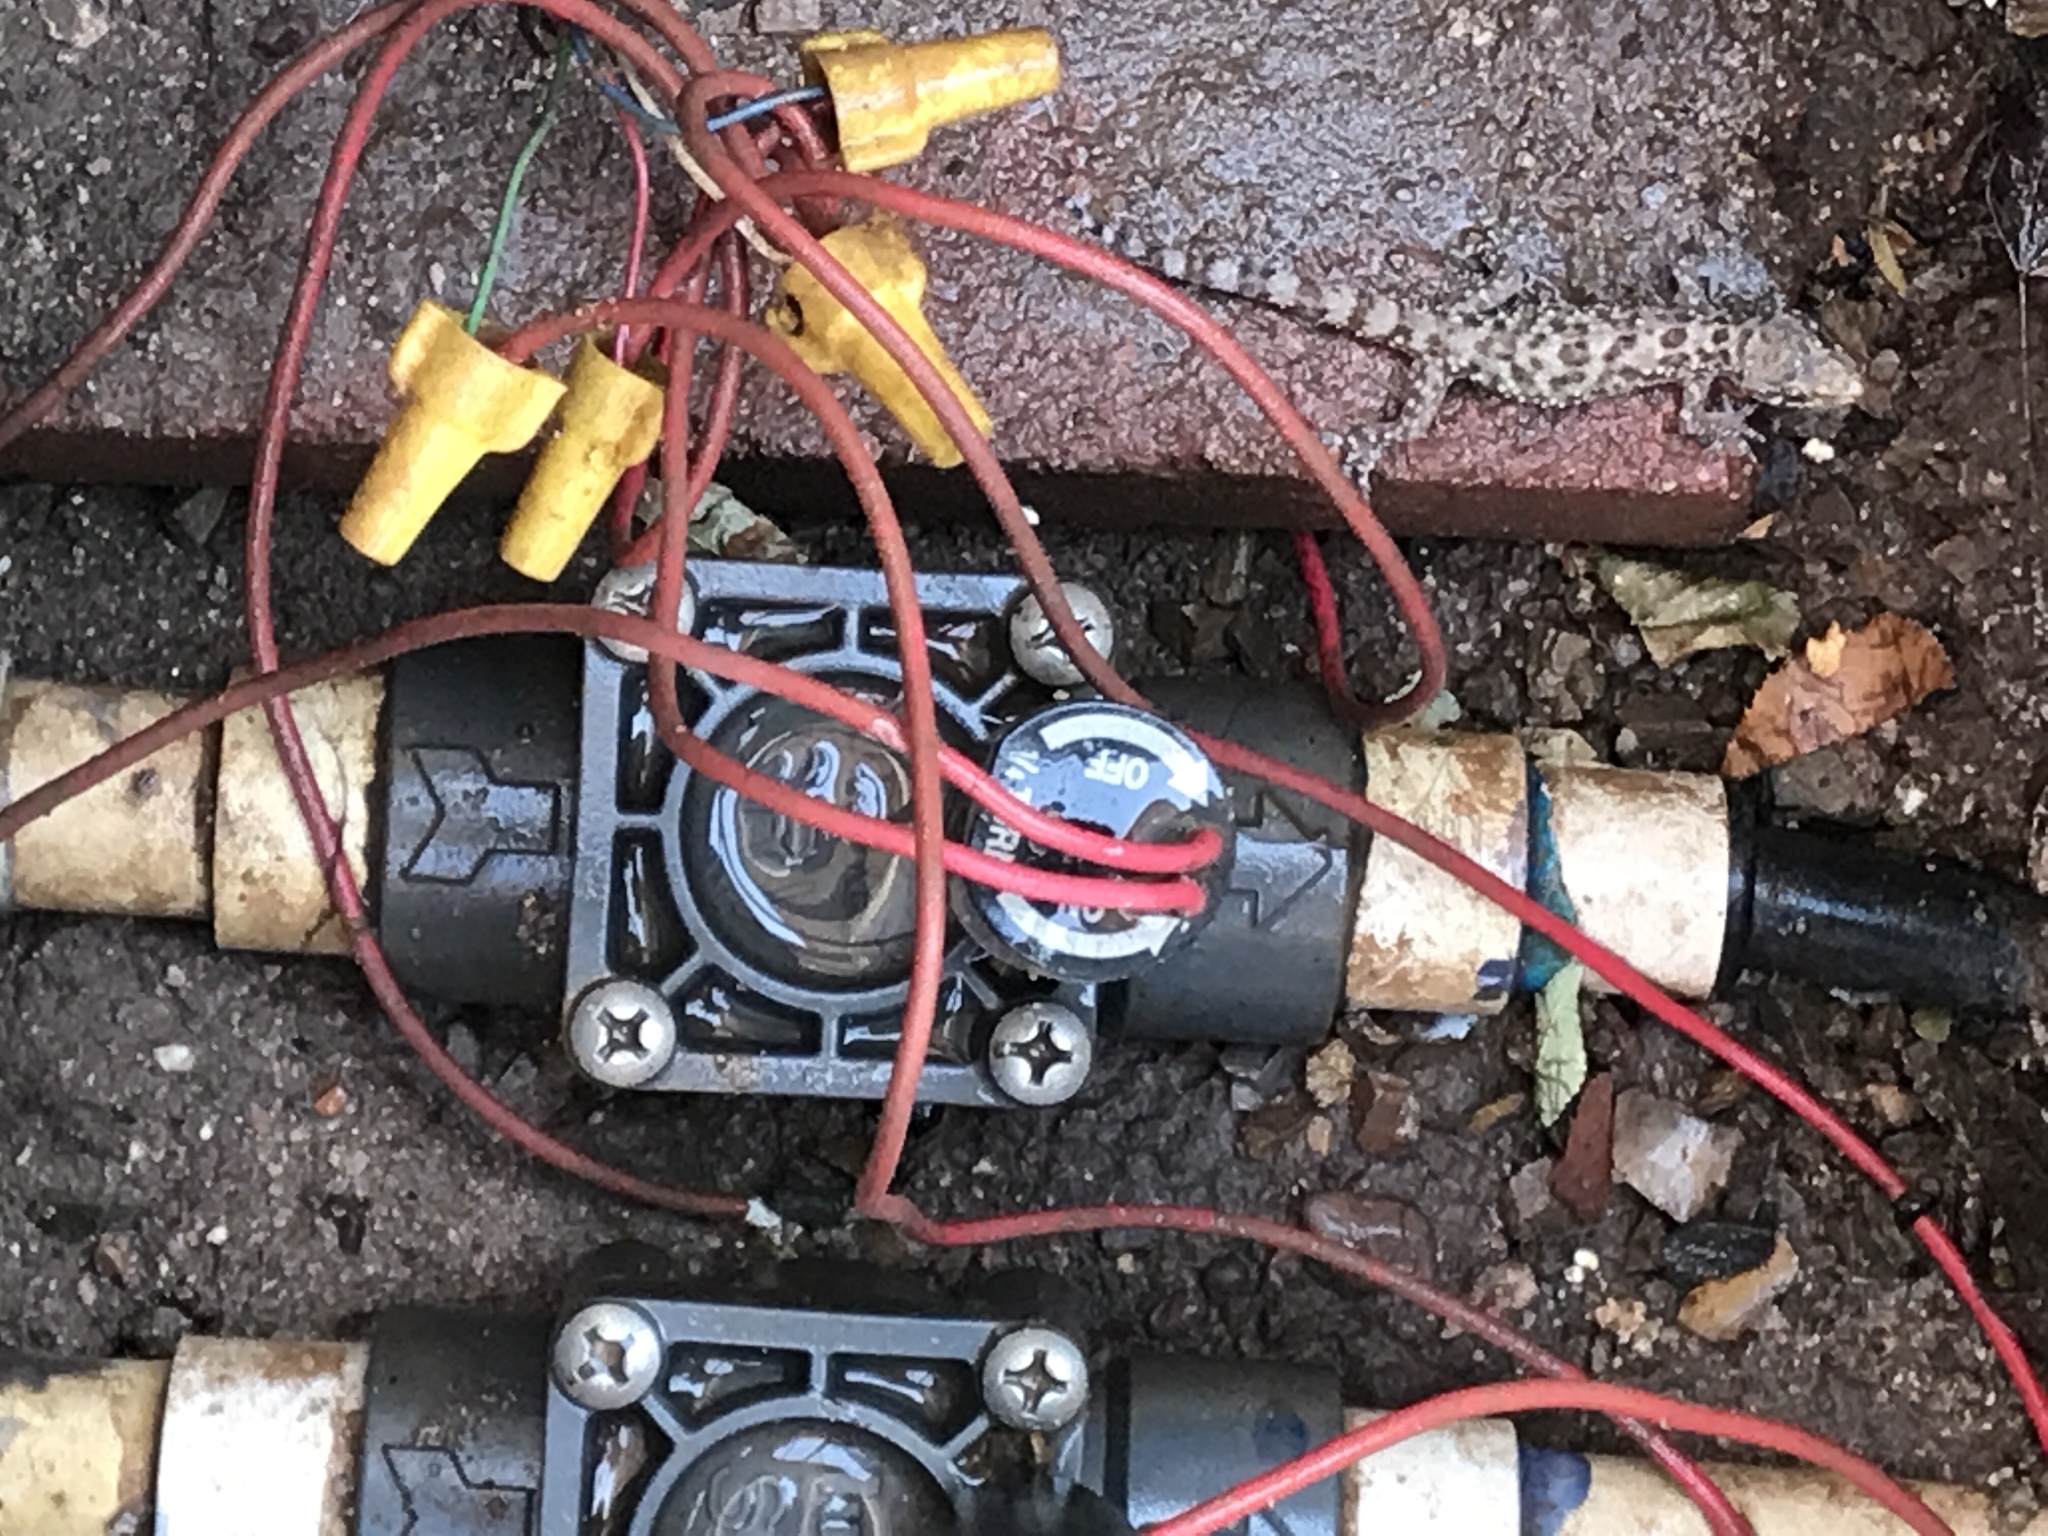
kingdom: Animalia
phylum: Chordata
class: Squamata
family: Gekkonidae
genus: Hemidactylus
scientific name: Hemidactylus turcicus
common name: Turkish gecko
